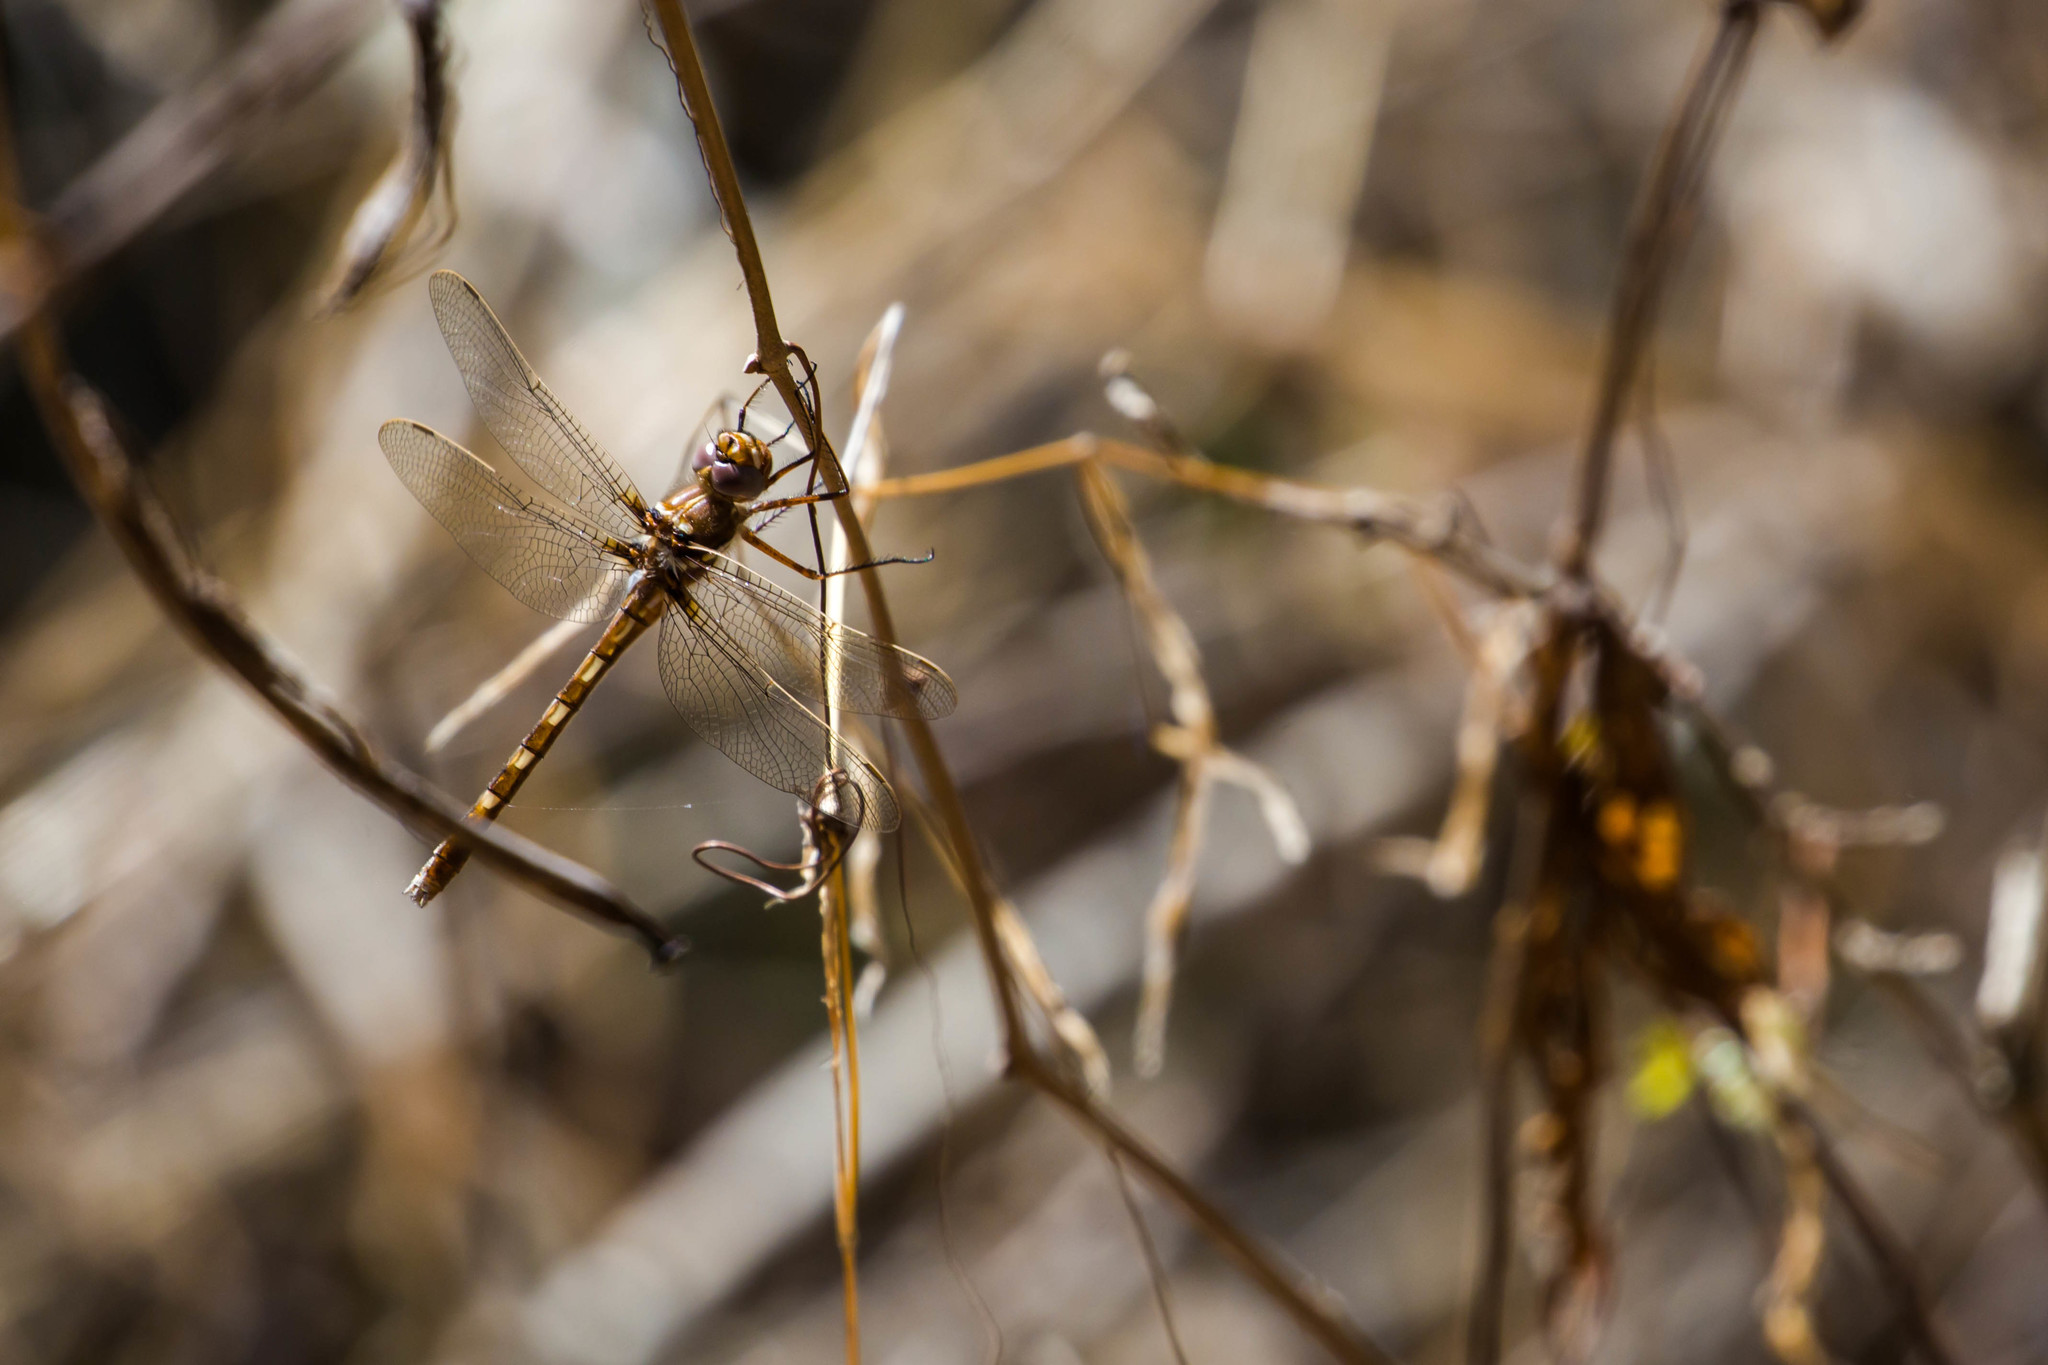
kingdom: Animalia
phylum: Arthropoda
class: Insecta
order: Odonata
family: Macromiidae
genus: Didymops
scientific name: Didymops transversa
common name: Stream cruiser
